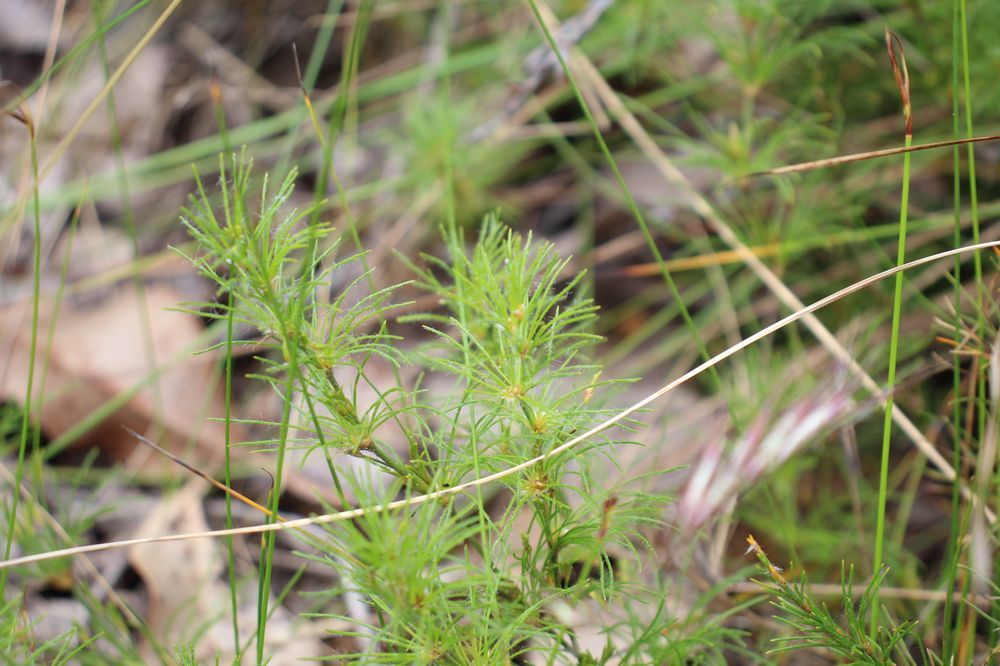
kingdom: Plantae
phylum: Tracheophyta
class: Liliopsida
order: Poales
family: Restionaceae
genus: Desmocladus
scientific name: Desmocladus fasciculatus
